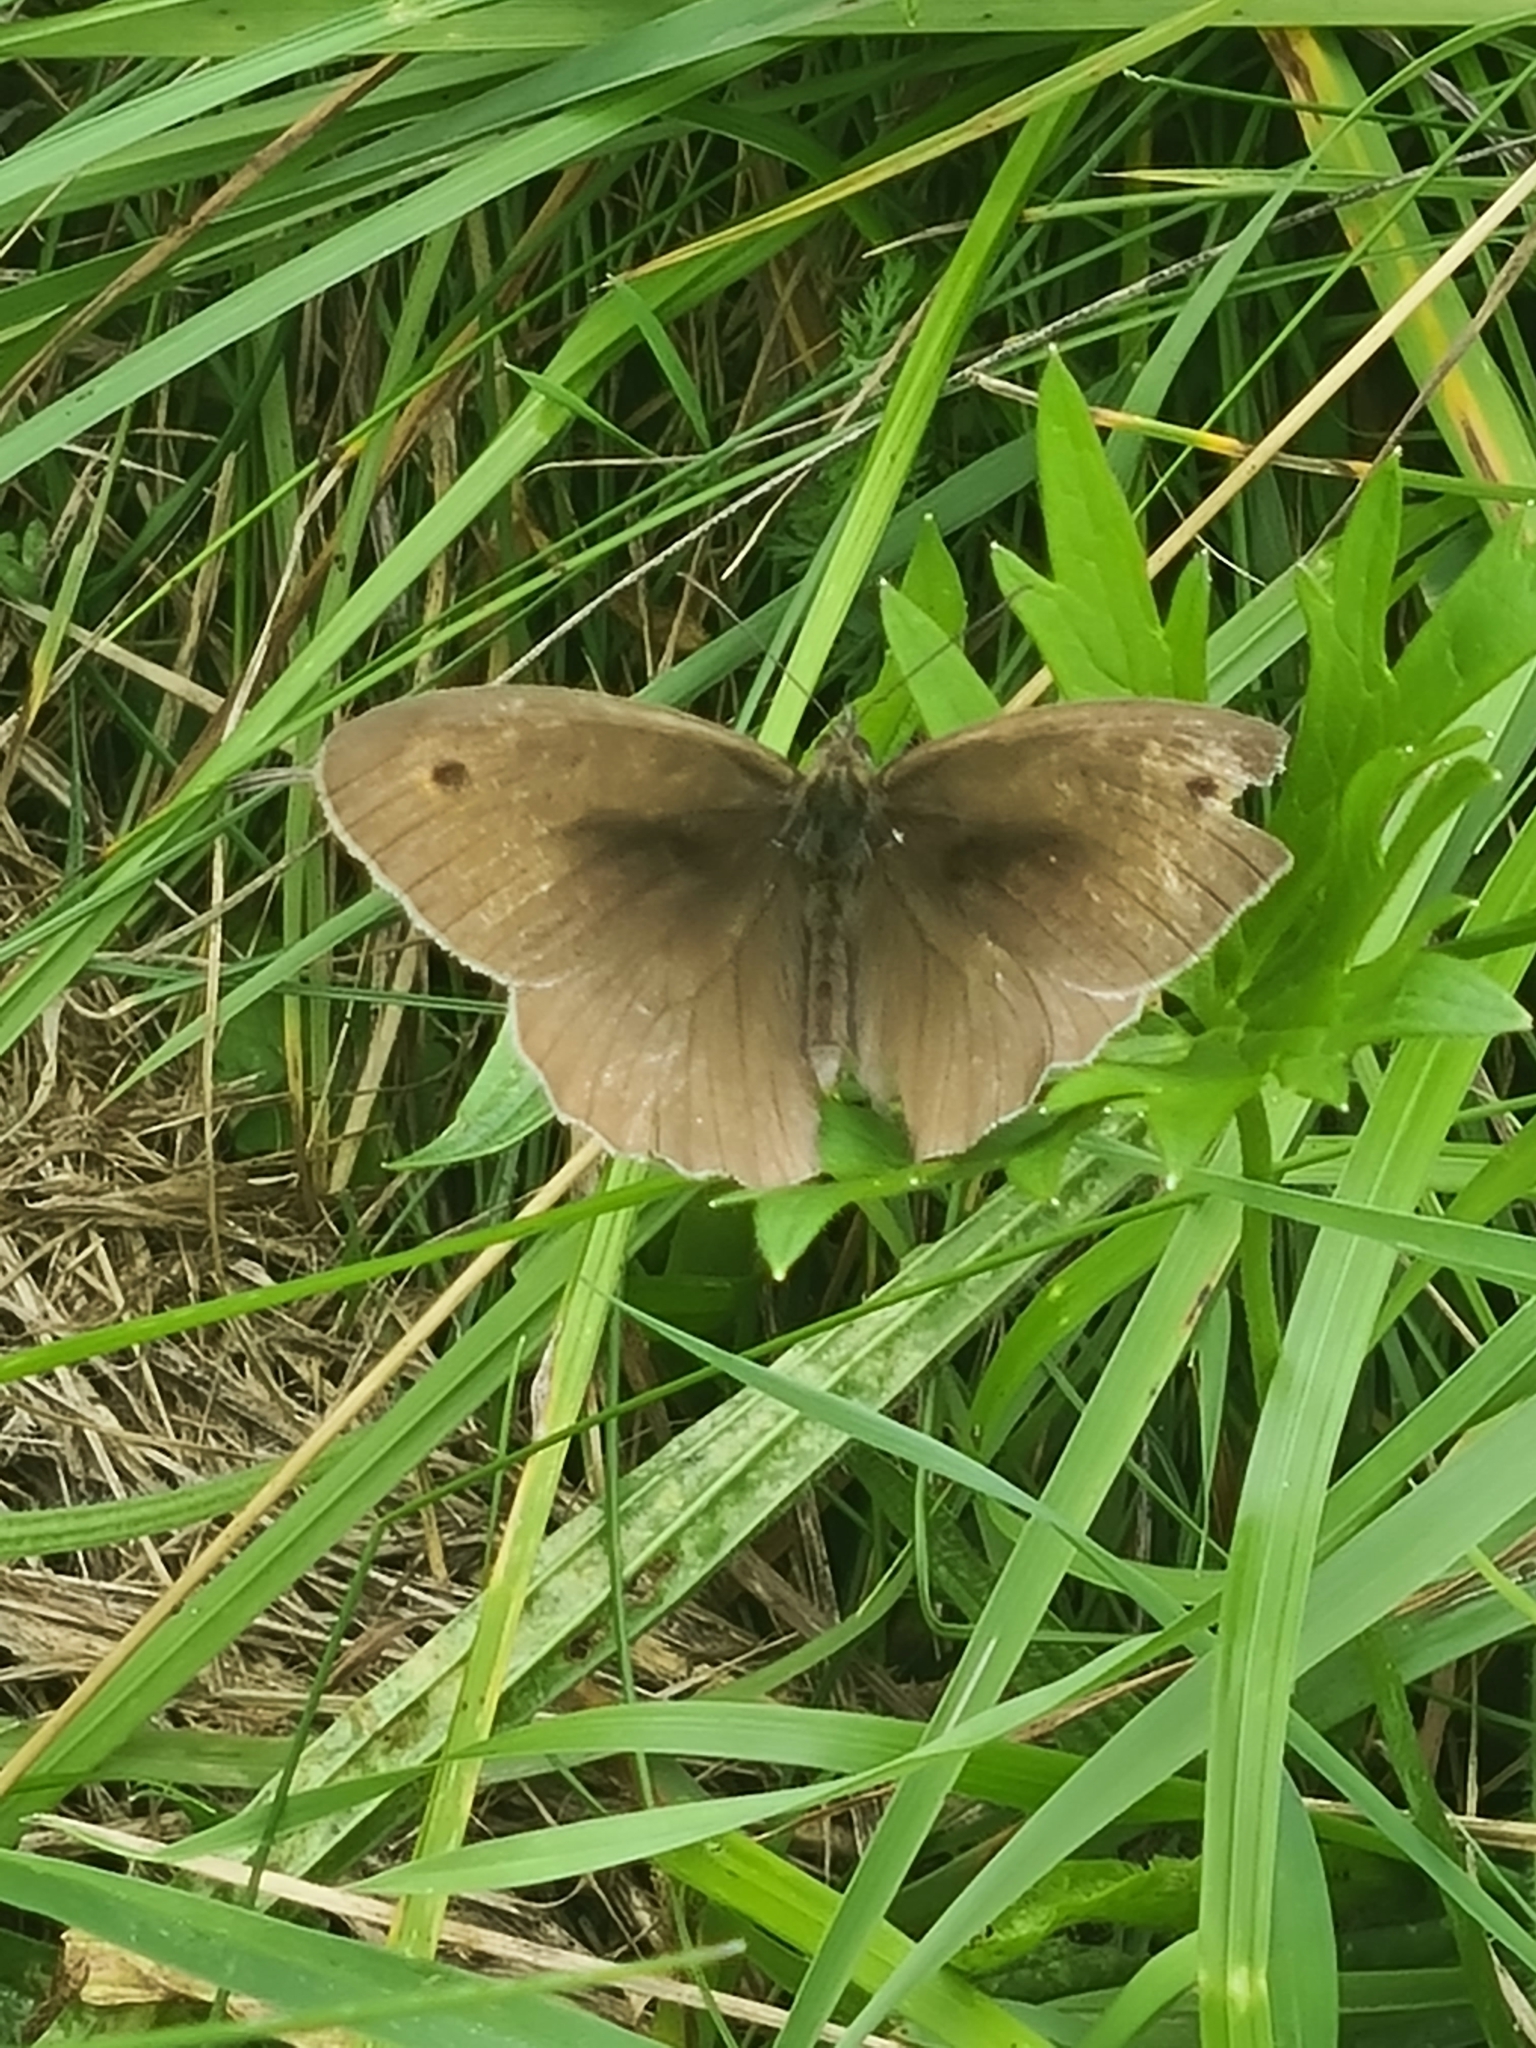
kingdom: Animalia
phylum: Arthropoda
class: Insecta
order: Lepidoptera
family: Nymphalidae
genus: Maniola
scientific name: Maniola jurtina
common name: Meadow brown
